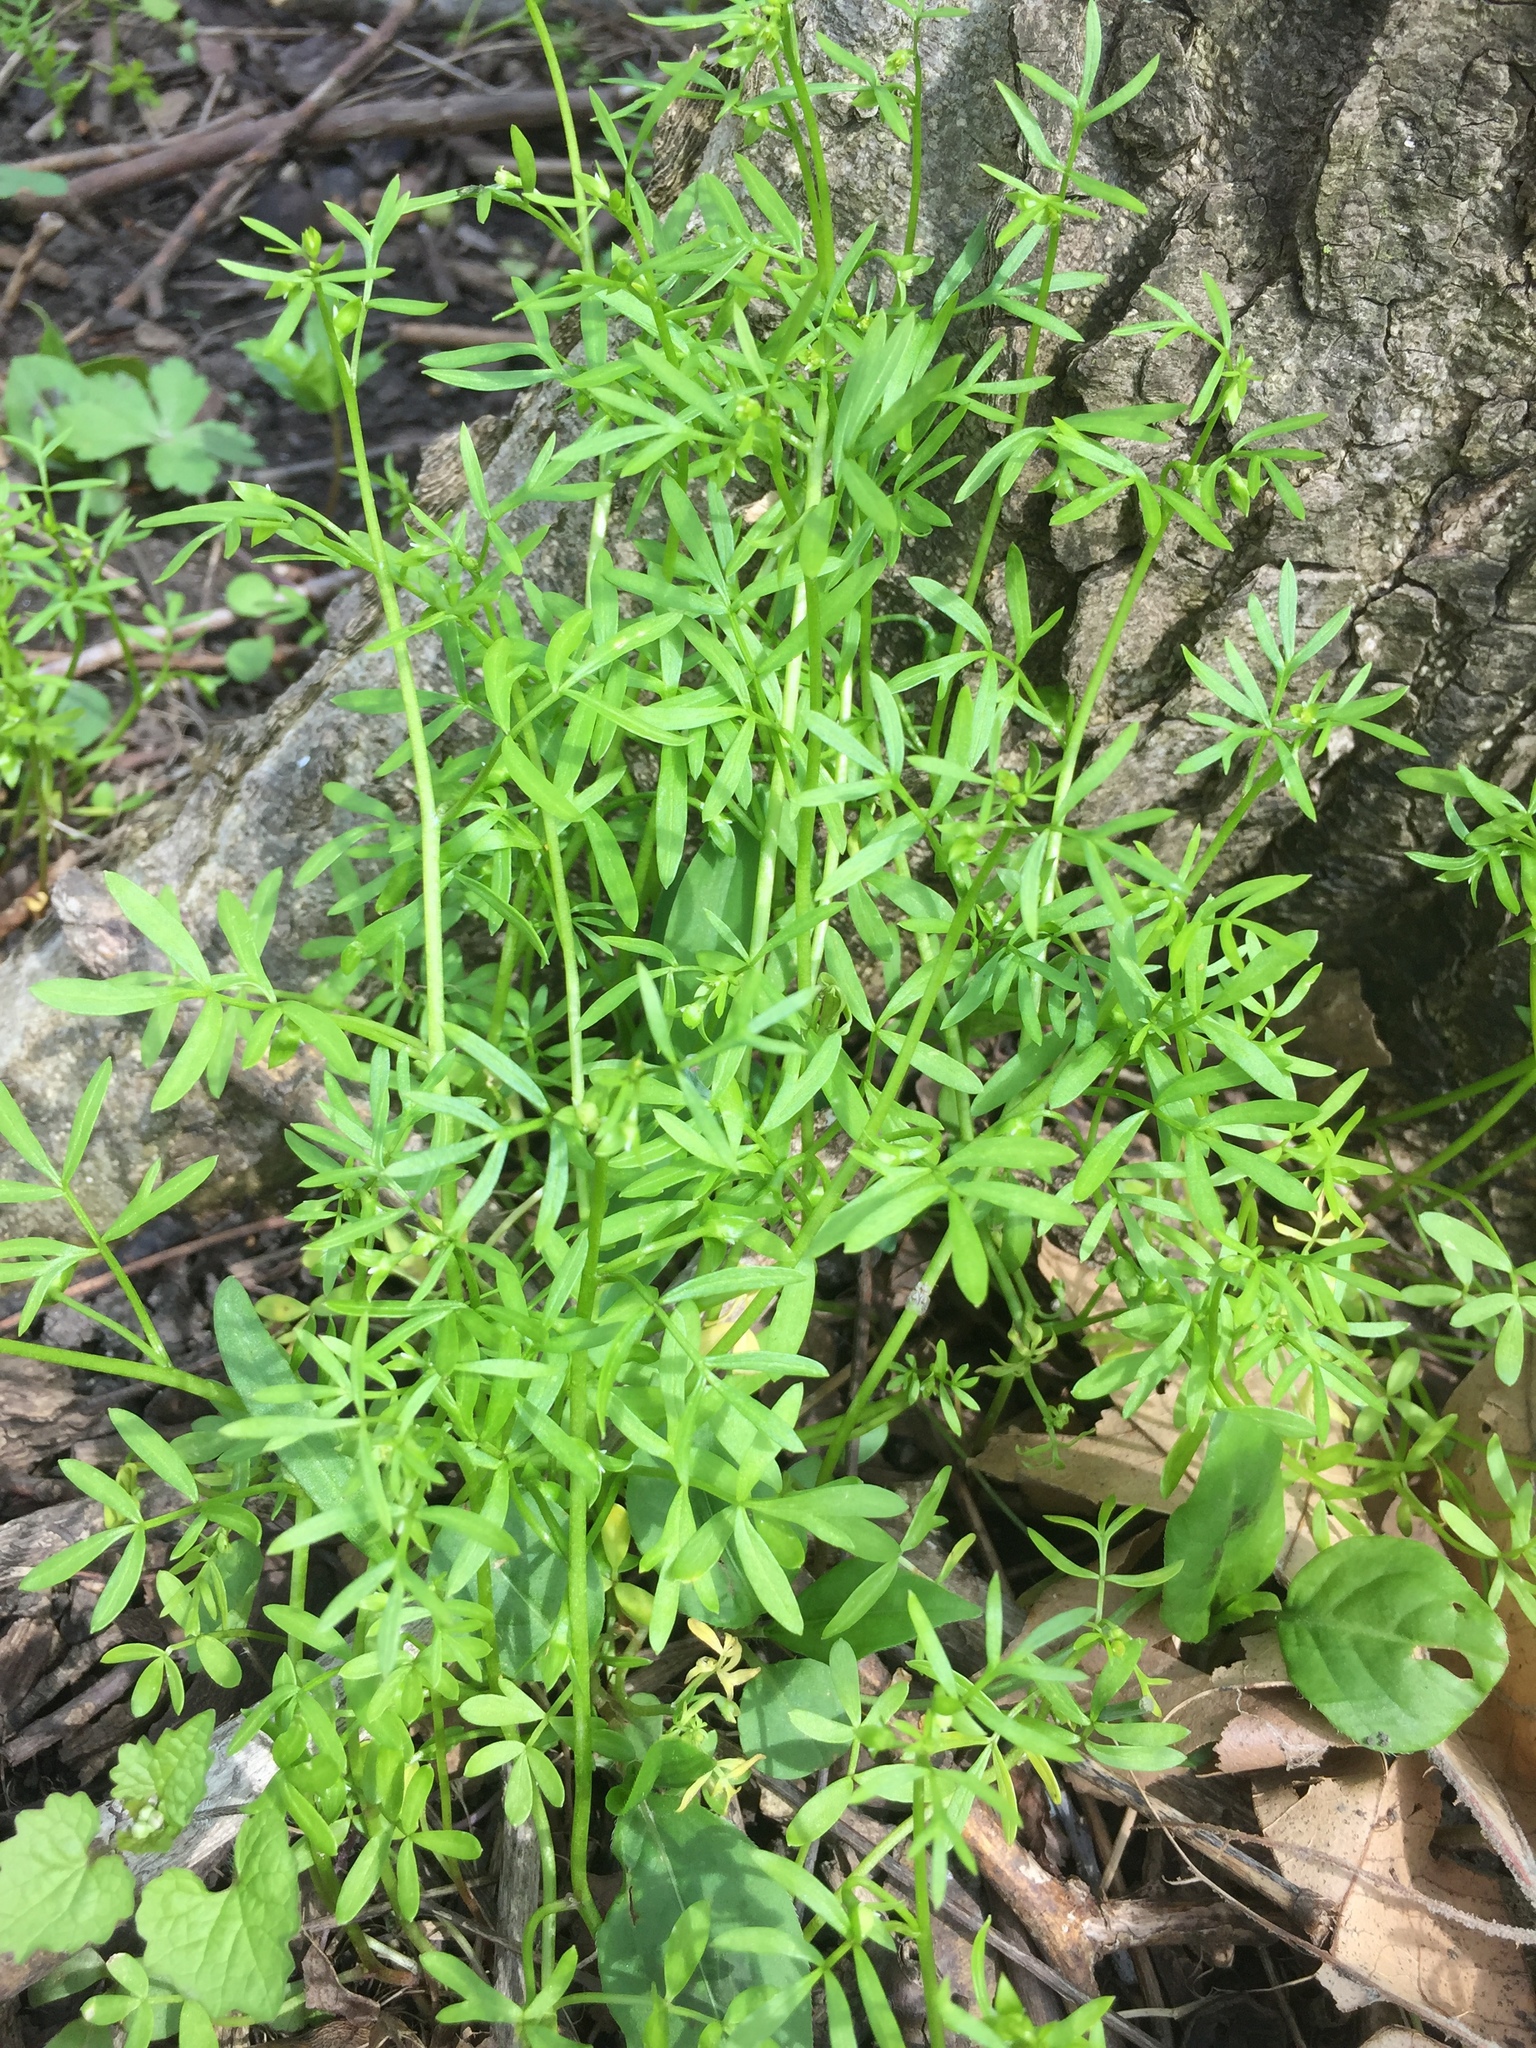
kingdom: Plantae
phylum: Tracheophyta
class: Magnoliopsida
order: Brassicales
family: Limnanthaceae
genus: Floerkea
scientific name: Floerkea proserpinacoides
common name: False mermaid
